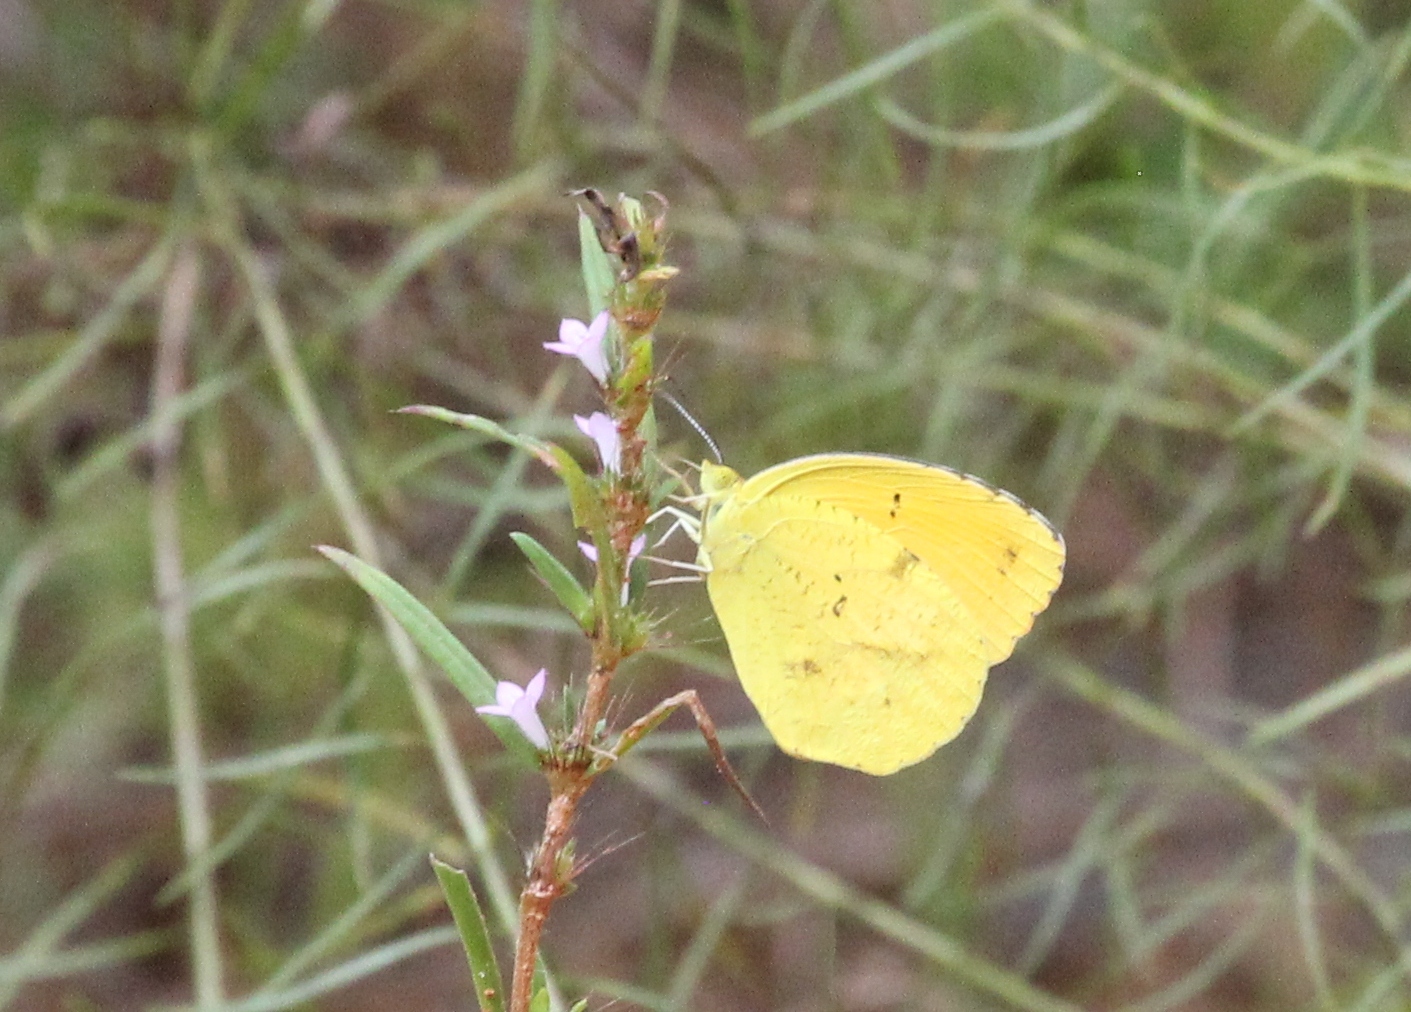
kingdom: Animalia
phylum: Arthropoda
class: Insecta
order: Lepidoptera
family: Pieridae
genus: Abaeis
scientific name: Abaeis nicippe
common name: Sleepy orange
